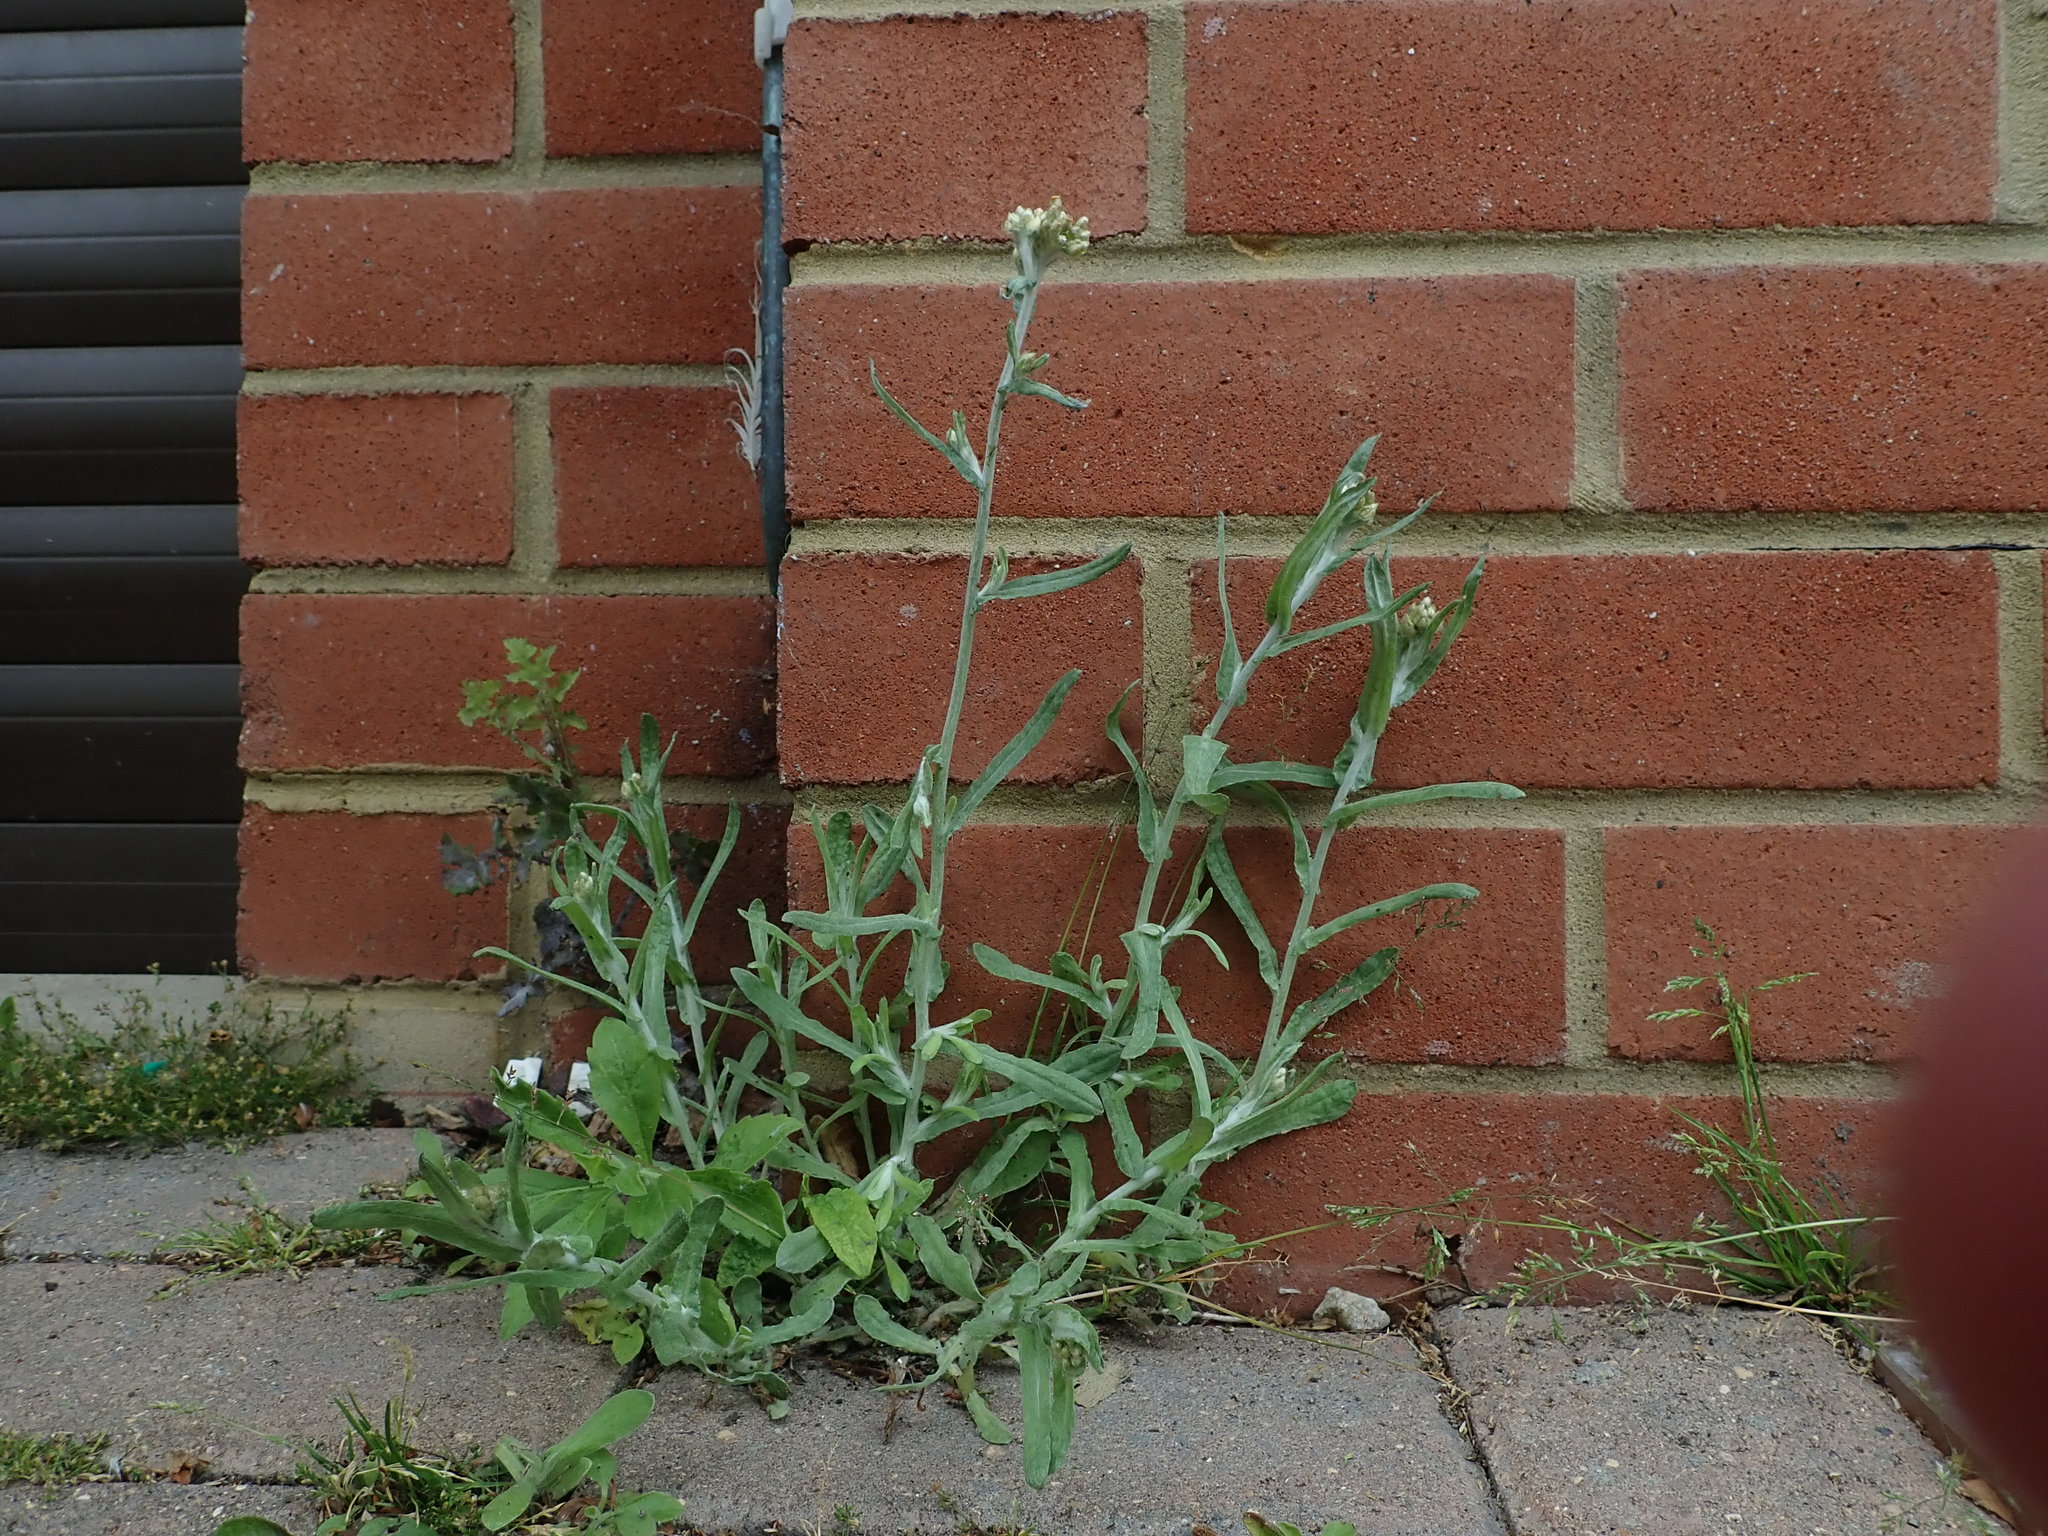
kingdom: Plantae
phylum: Tracheophyta
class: Magnoliopsida
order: Asterales
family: Asteraceae
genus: Helichrysum
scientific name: Helichrysum luteoalbum
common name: Daisy
